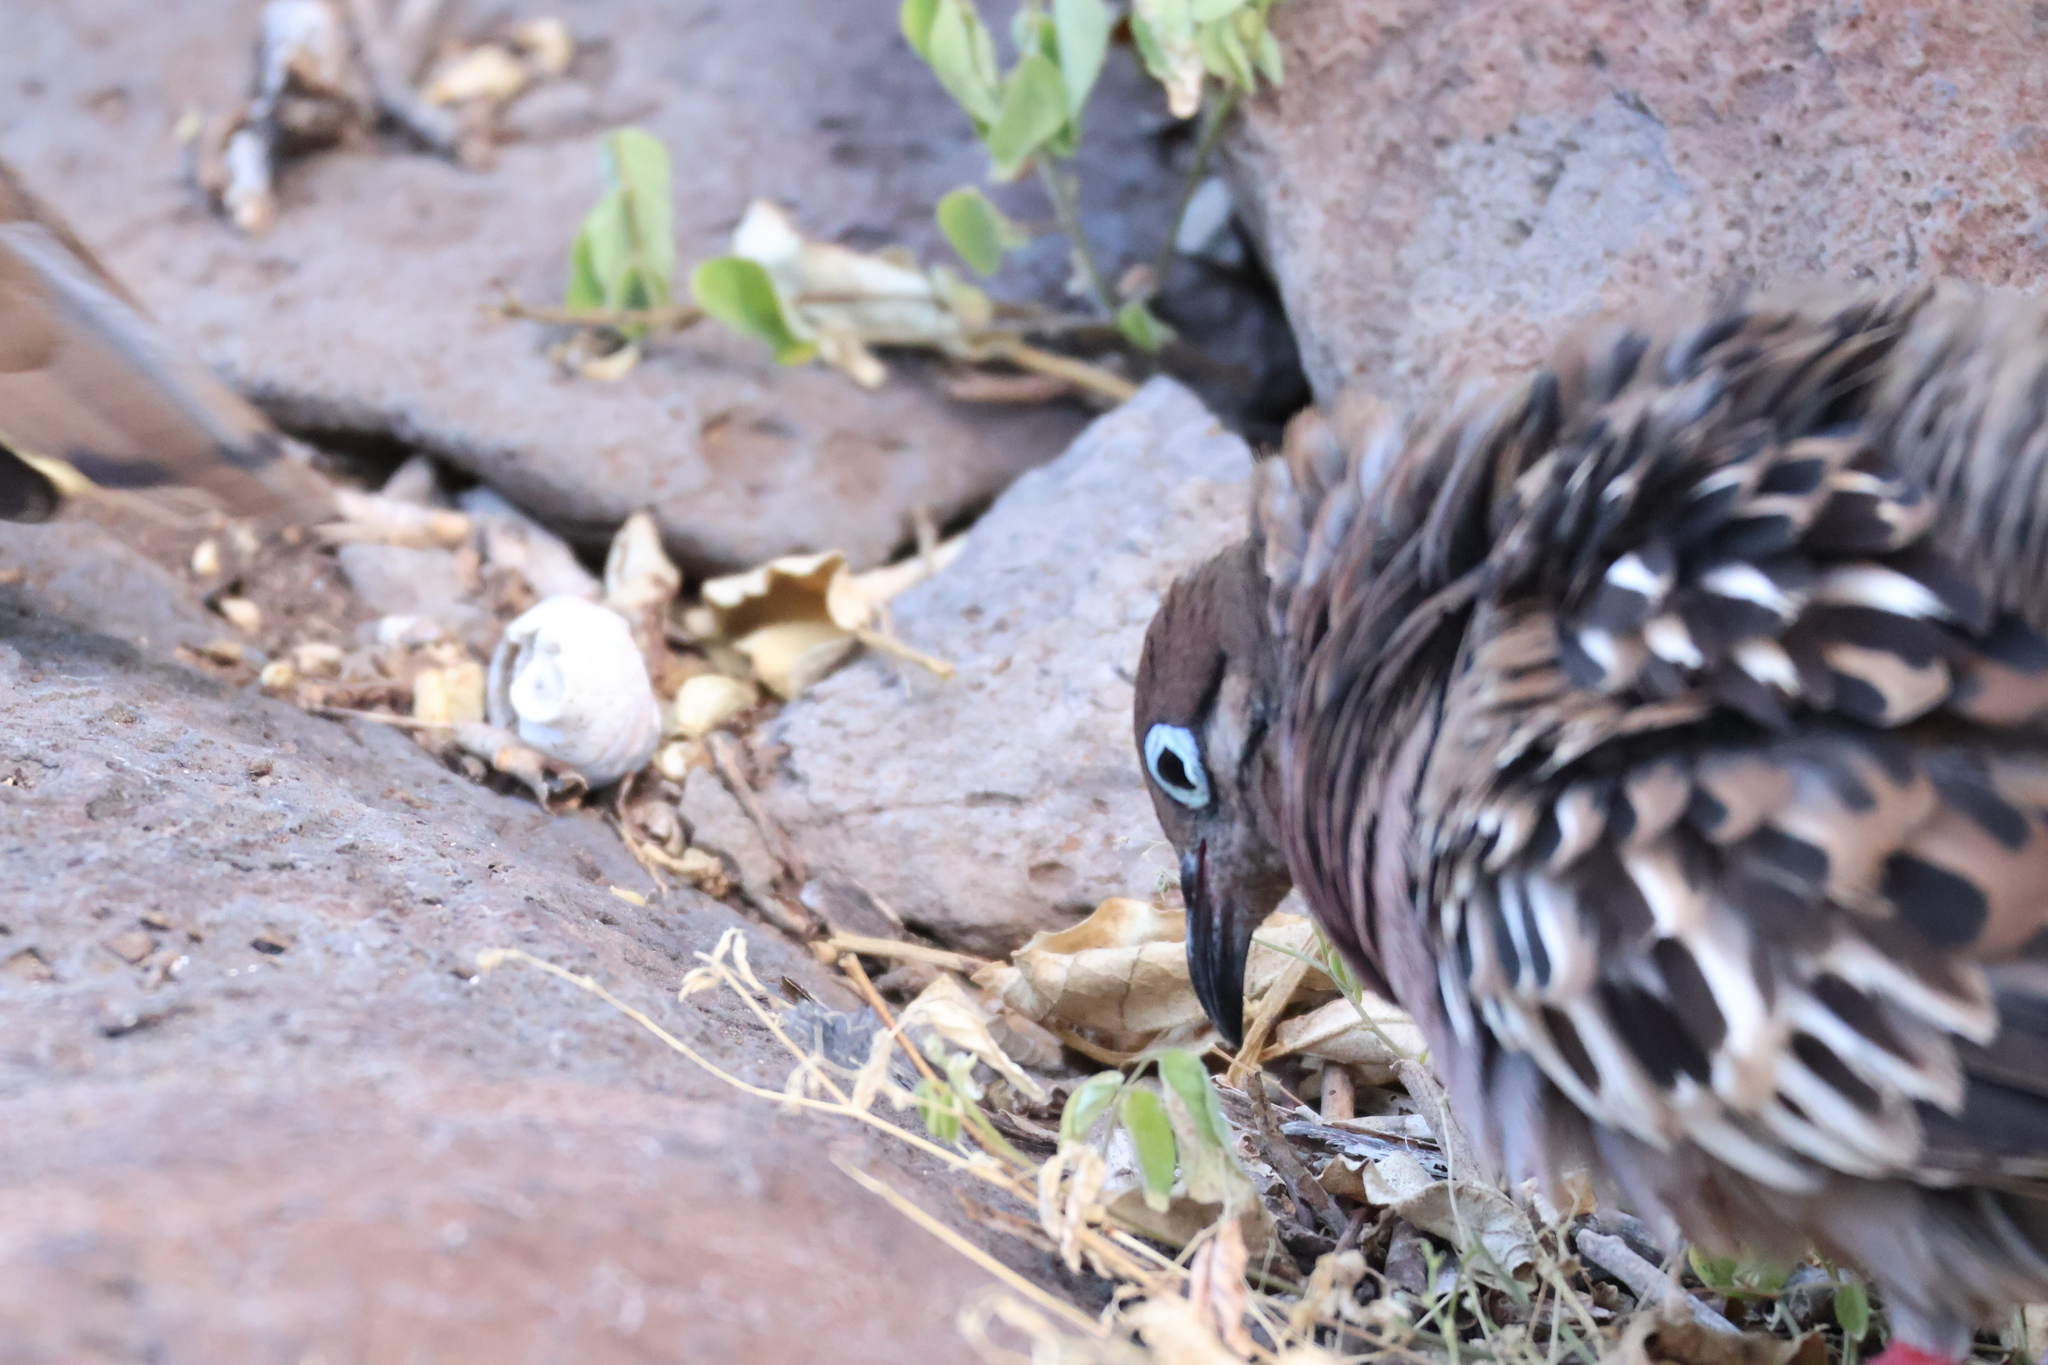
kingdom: Animalia
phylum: Chordata
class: Aves
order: Columbiformes
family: Columbidae
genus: Zenaida
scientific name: Zenaida galapagoensis
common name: Galapagos dove
